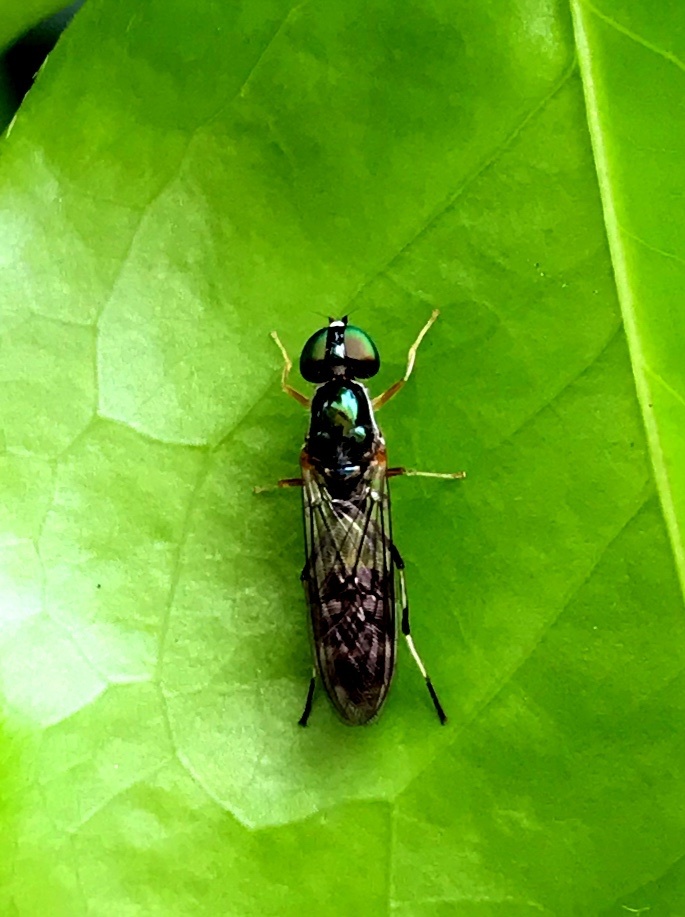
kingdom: Animalia
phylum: Arthropoda
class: Insecta
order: Diptera
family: Stratiomyidae
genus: Sargus
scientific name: Sargus fasciatus
